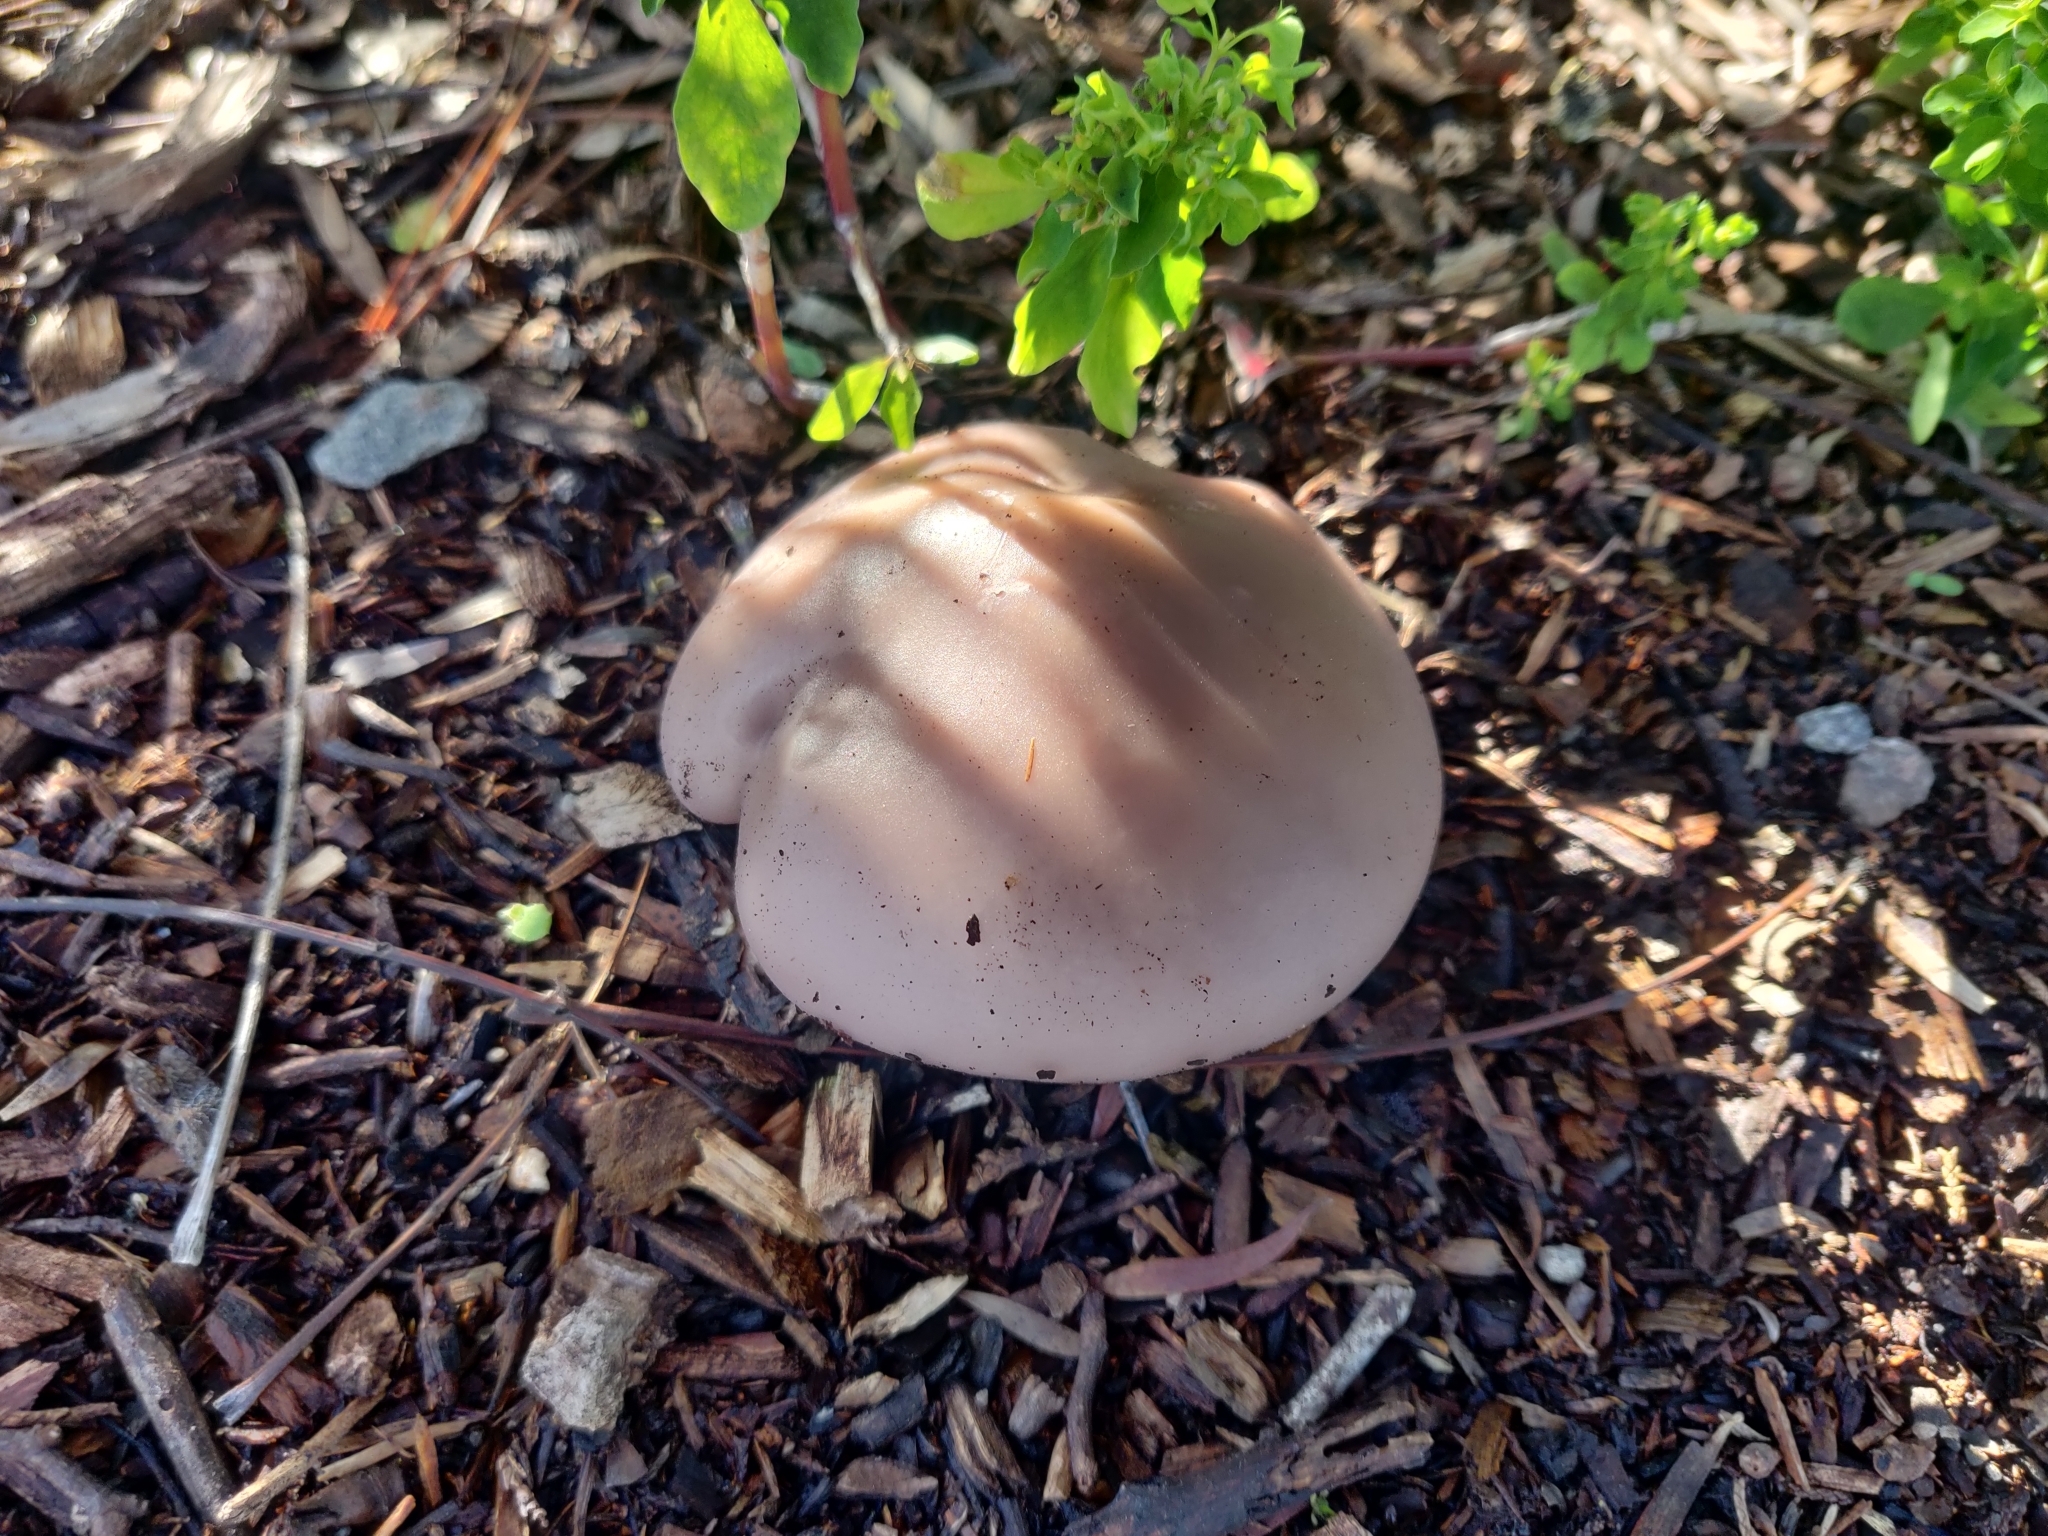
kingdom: Fungi
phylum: Basidiomycota
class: Agaricomycetes
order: Agaricales
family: Tricholomataceae
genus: Collybia
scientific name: Collybia
